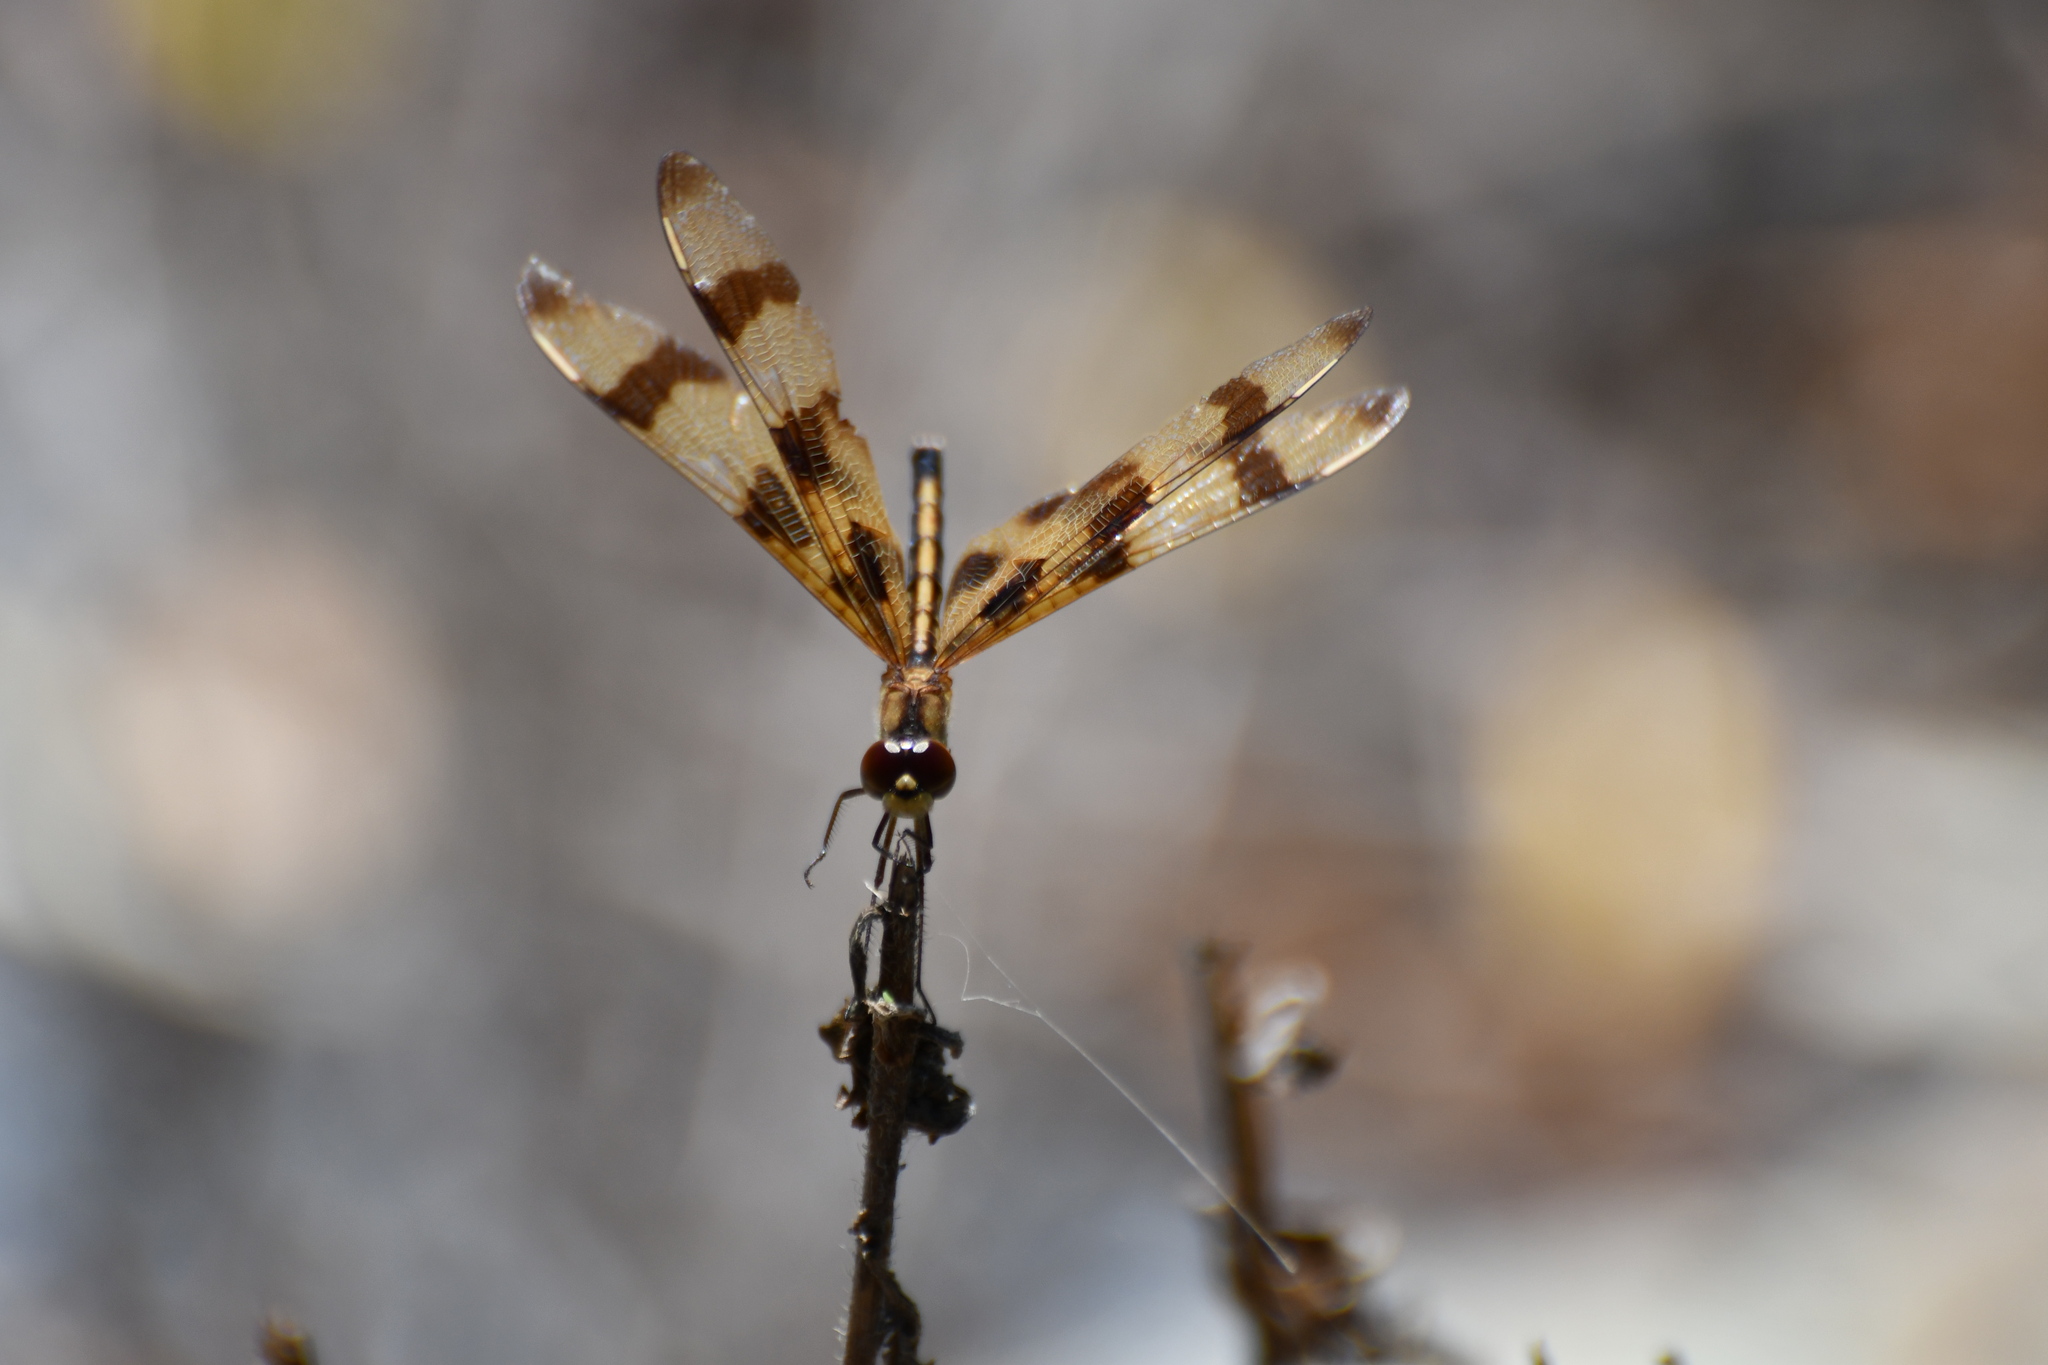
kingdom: Animalia
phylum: Arthropoda
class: Insecta
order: Odonata
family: Libellulidae
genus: Celithemis
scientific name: Celithemis eponina
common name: Halloween pennant
